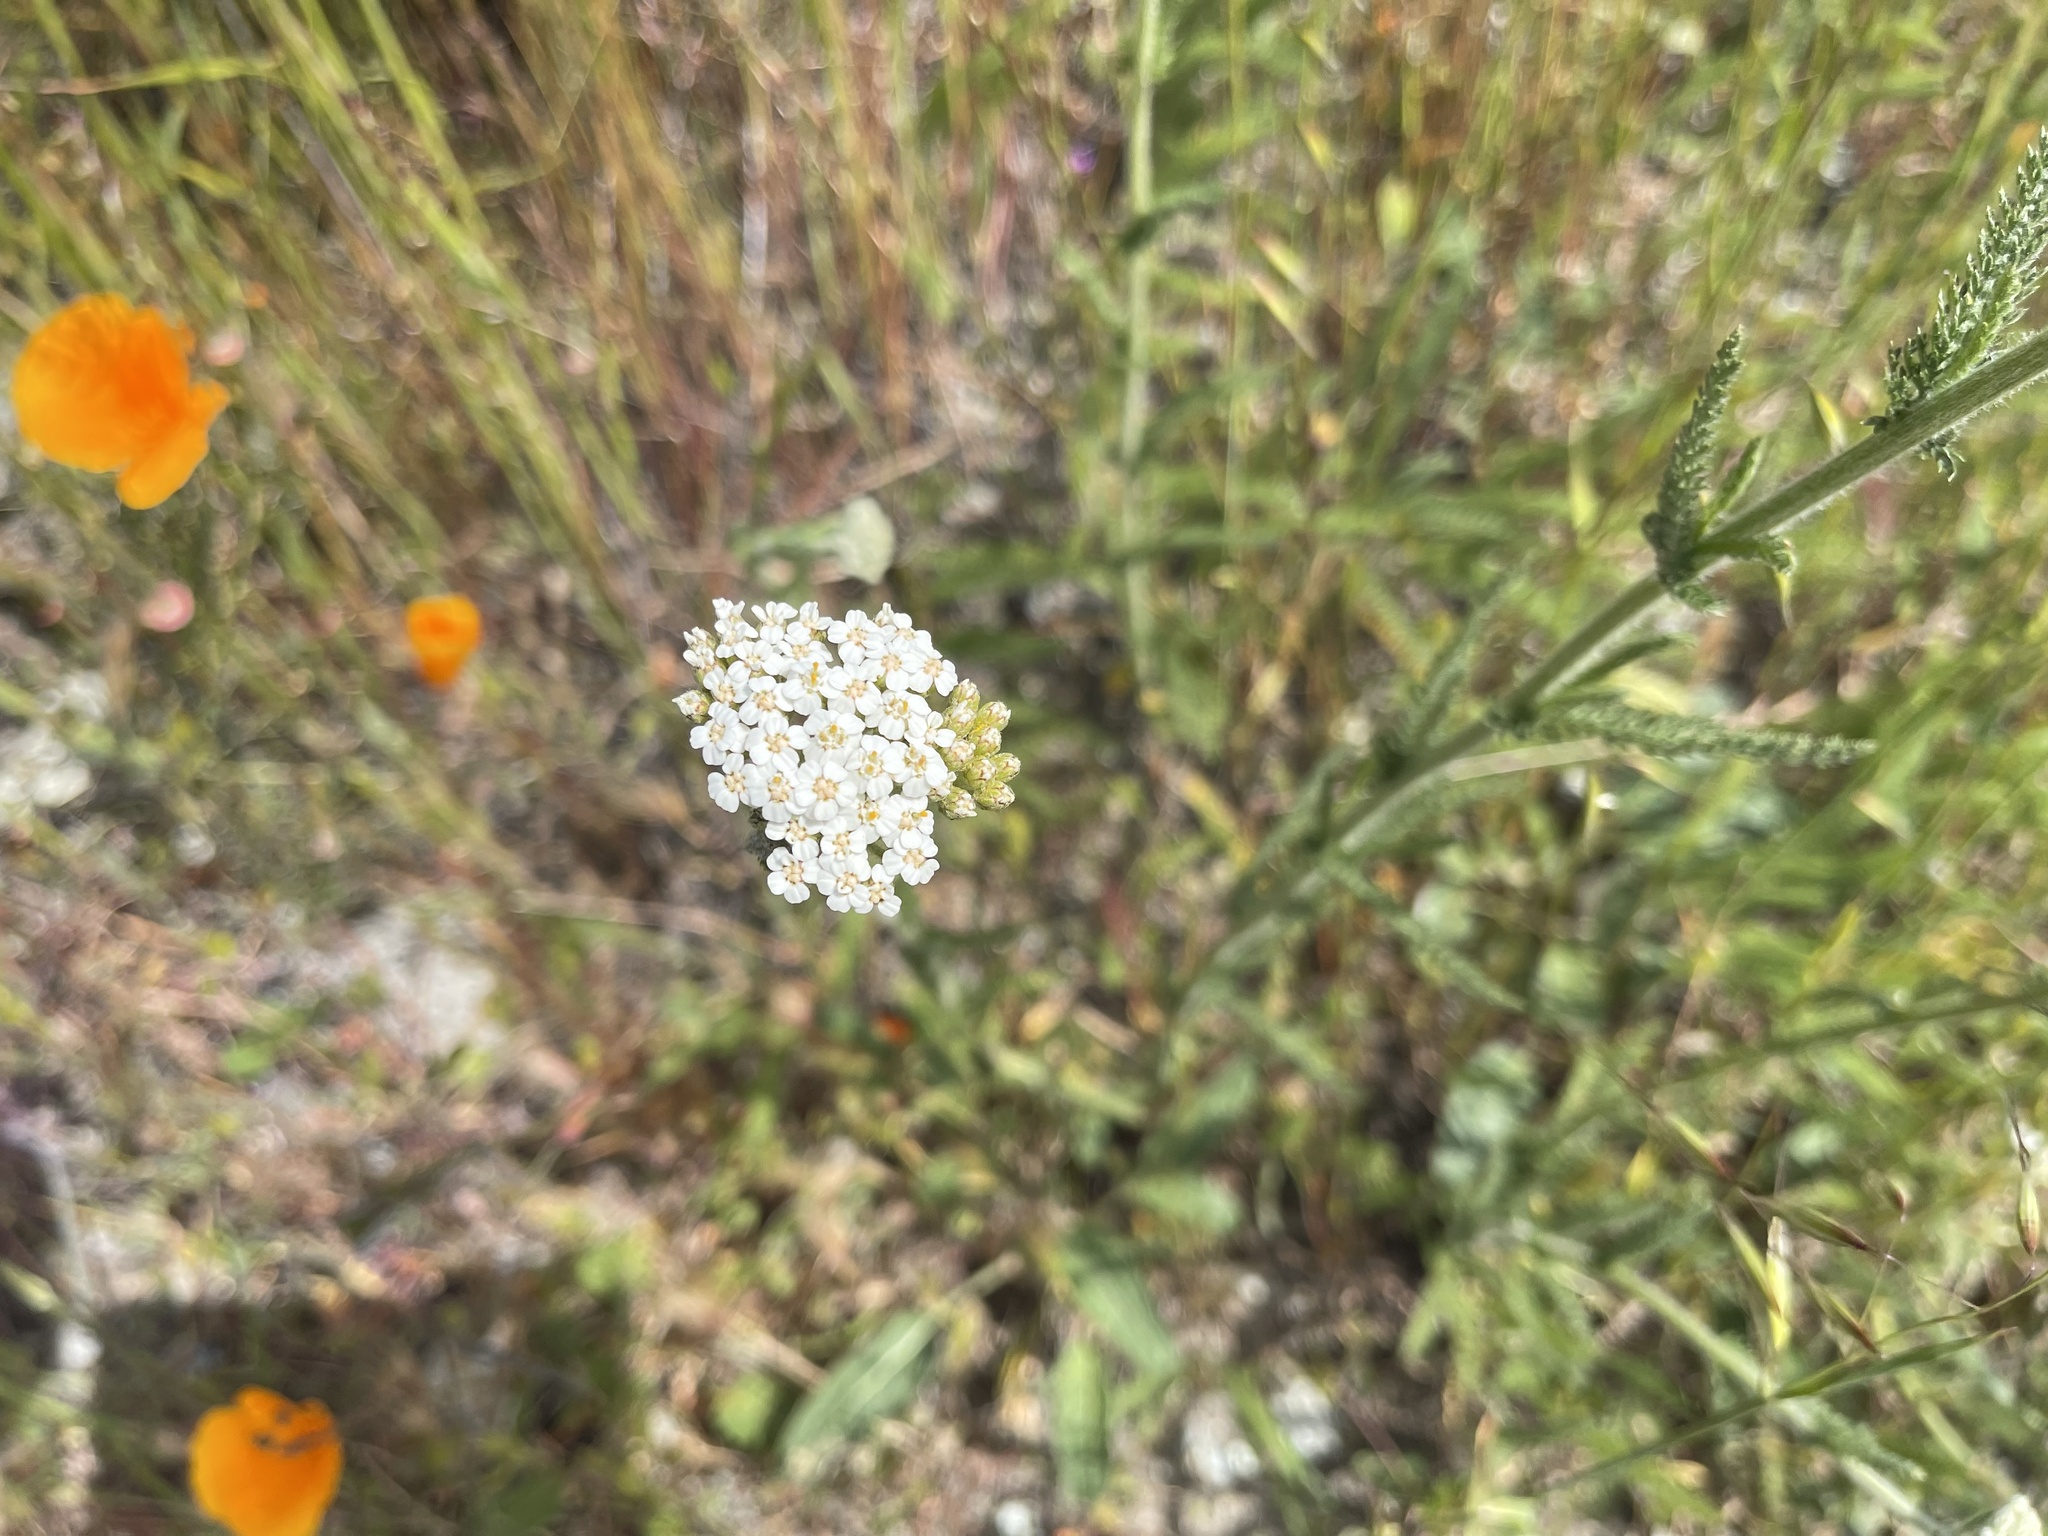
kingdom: Plantae
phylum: Tracheophyta
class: Magnoliopsida
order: Asterales
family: Asteraceae
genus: Achillea
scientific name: Achillea millefolium
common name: Yarrow
